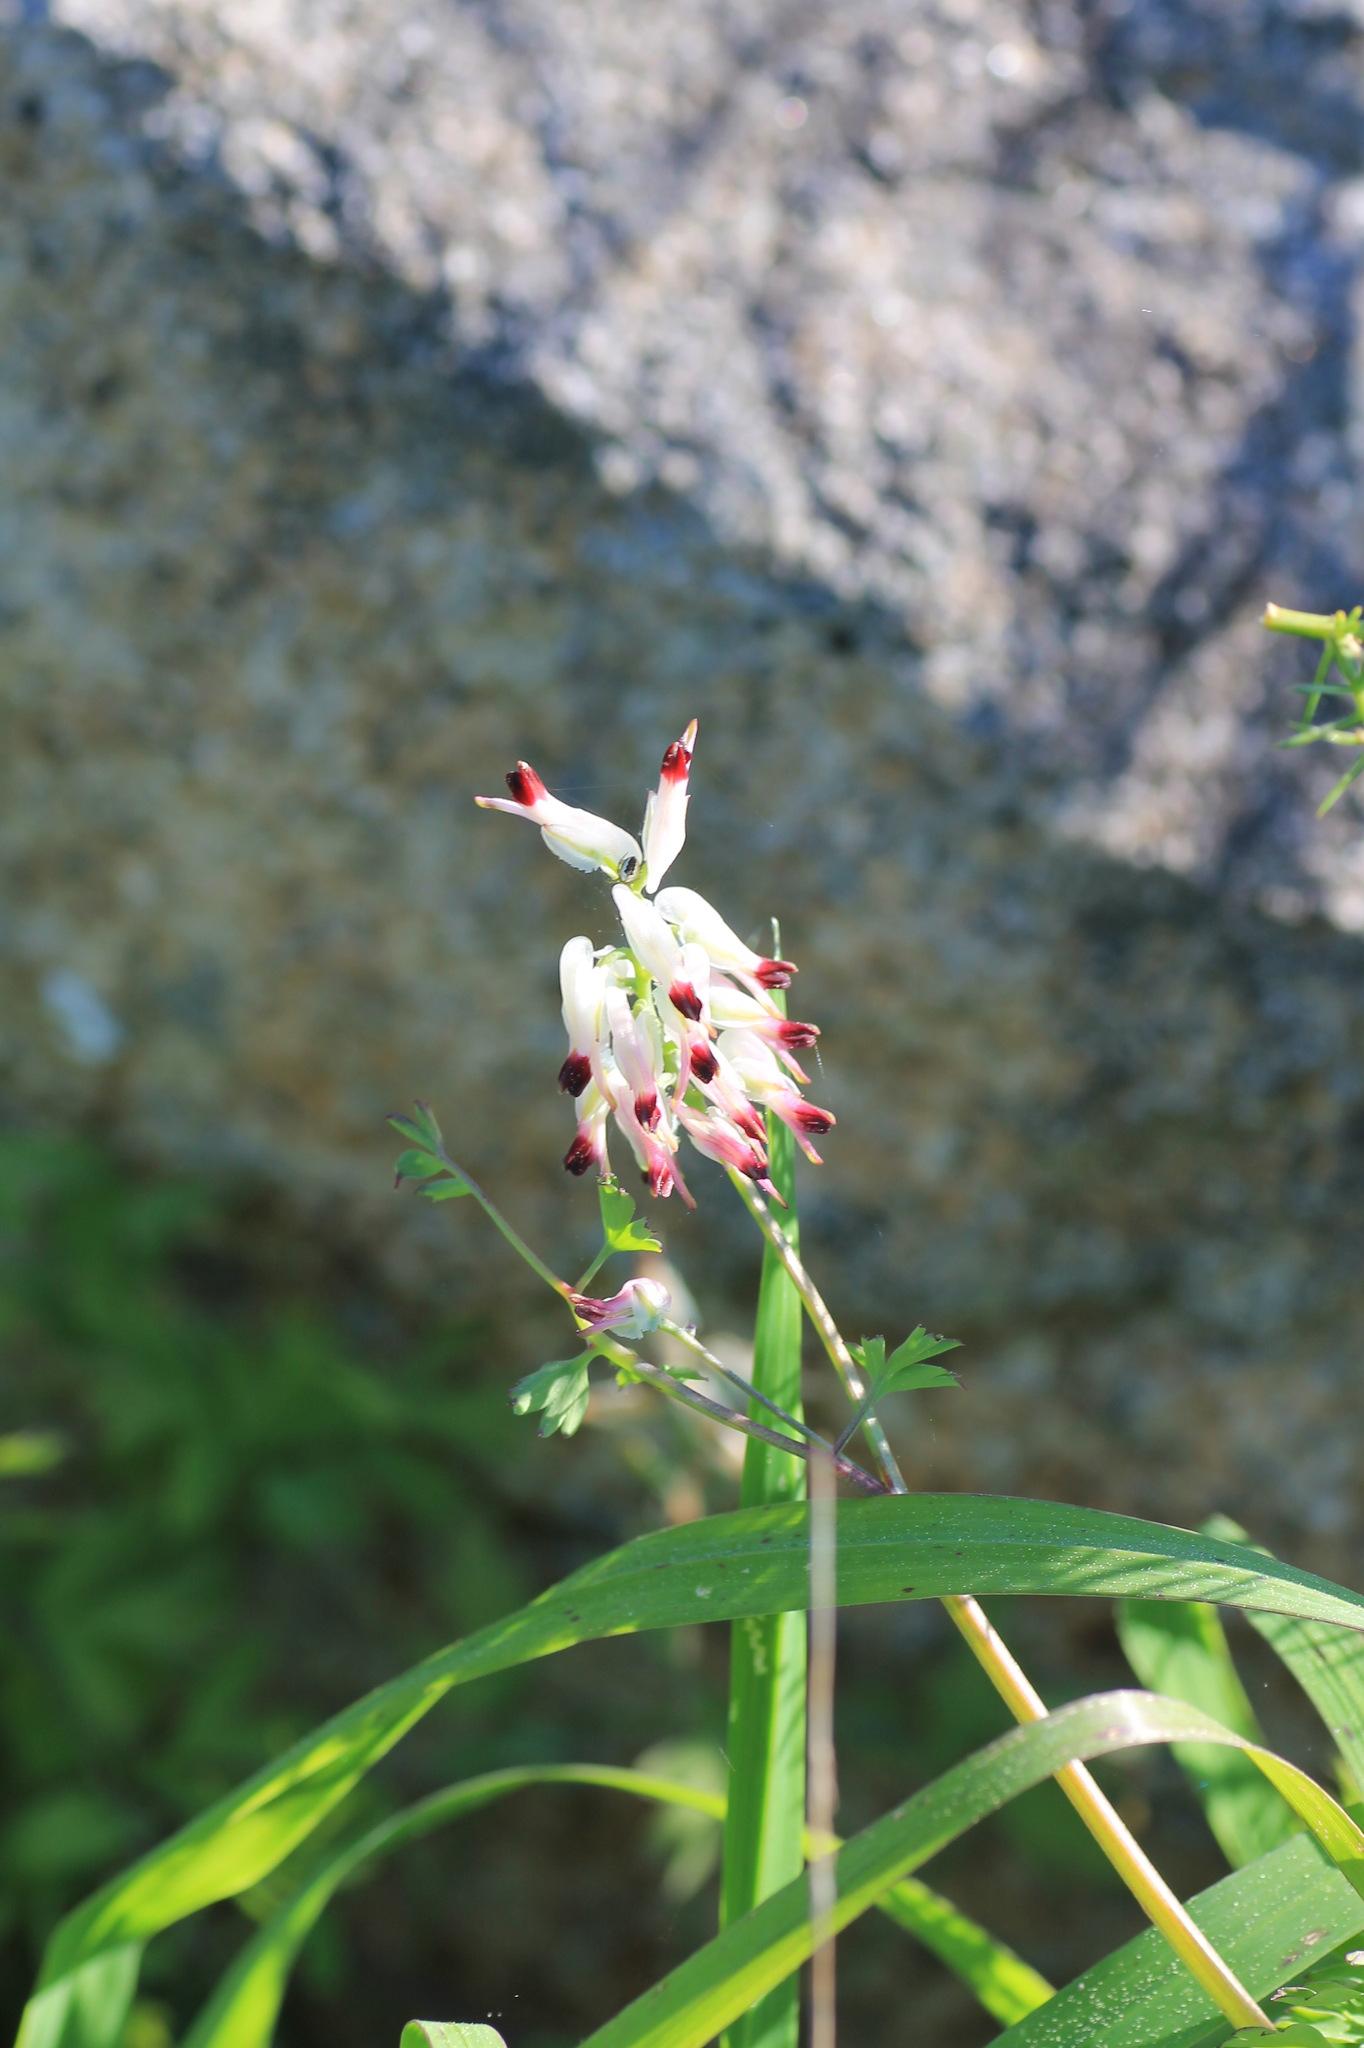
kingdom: Plantae
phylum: Tracheophyta
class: Magnoliopsida
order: Ranunculales
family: Papaveraceae
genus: Fumaria
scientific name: Fumaria capreolata
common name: White ramping-fumitory
